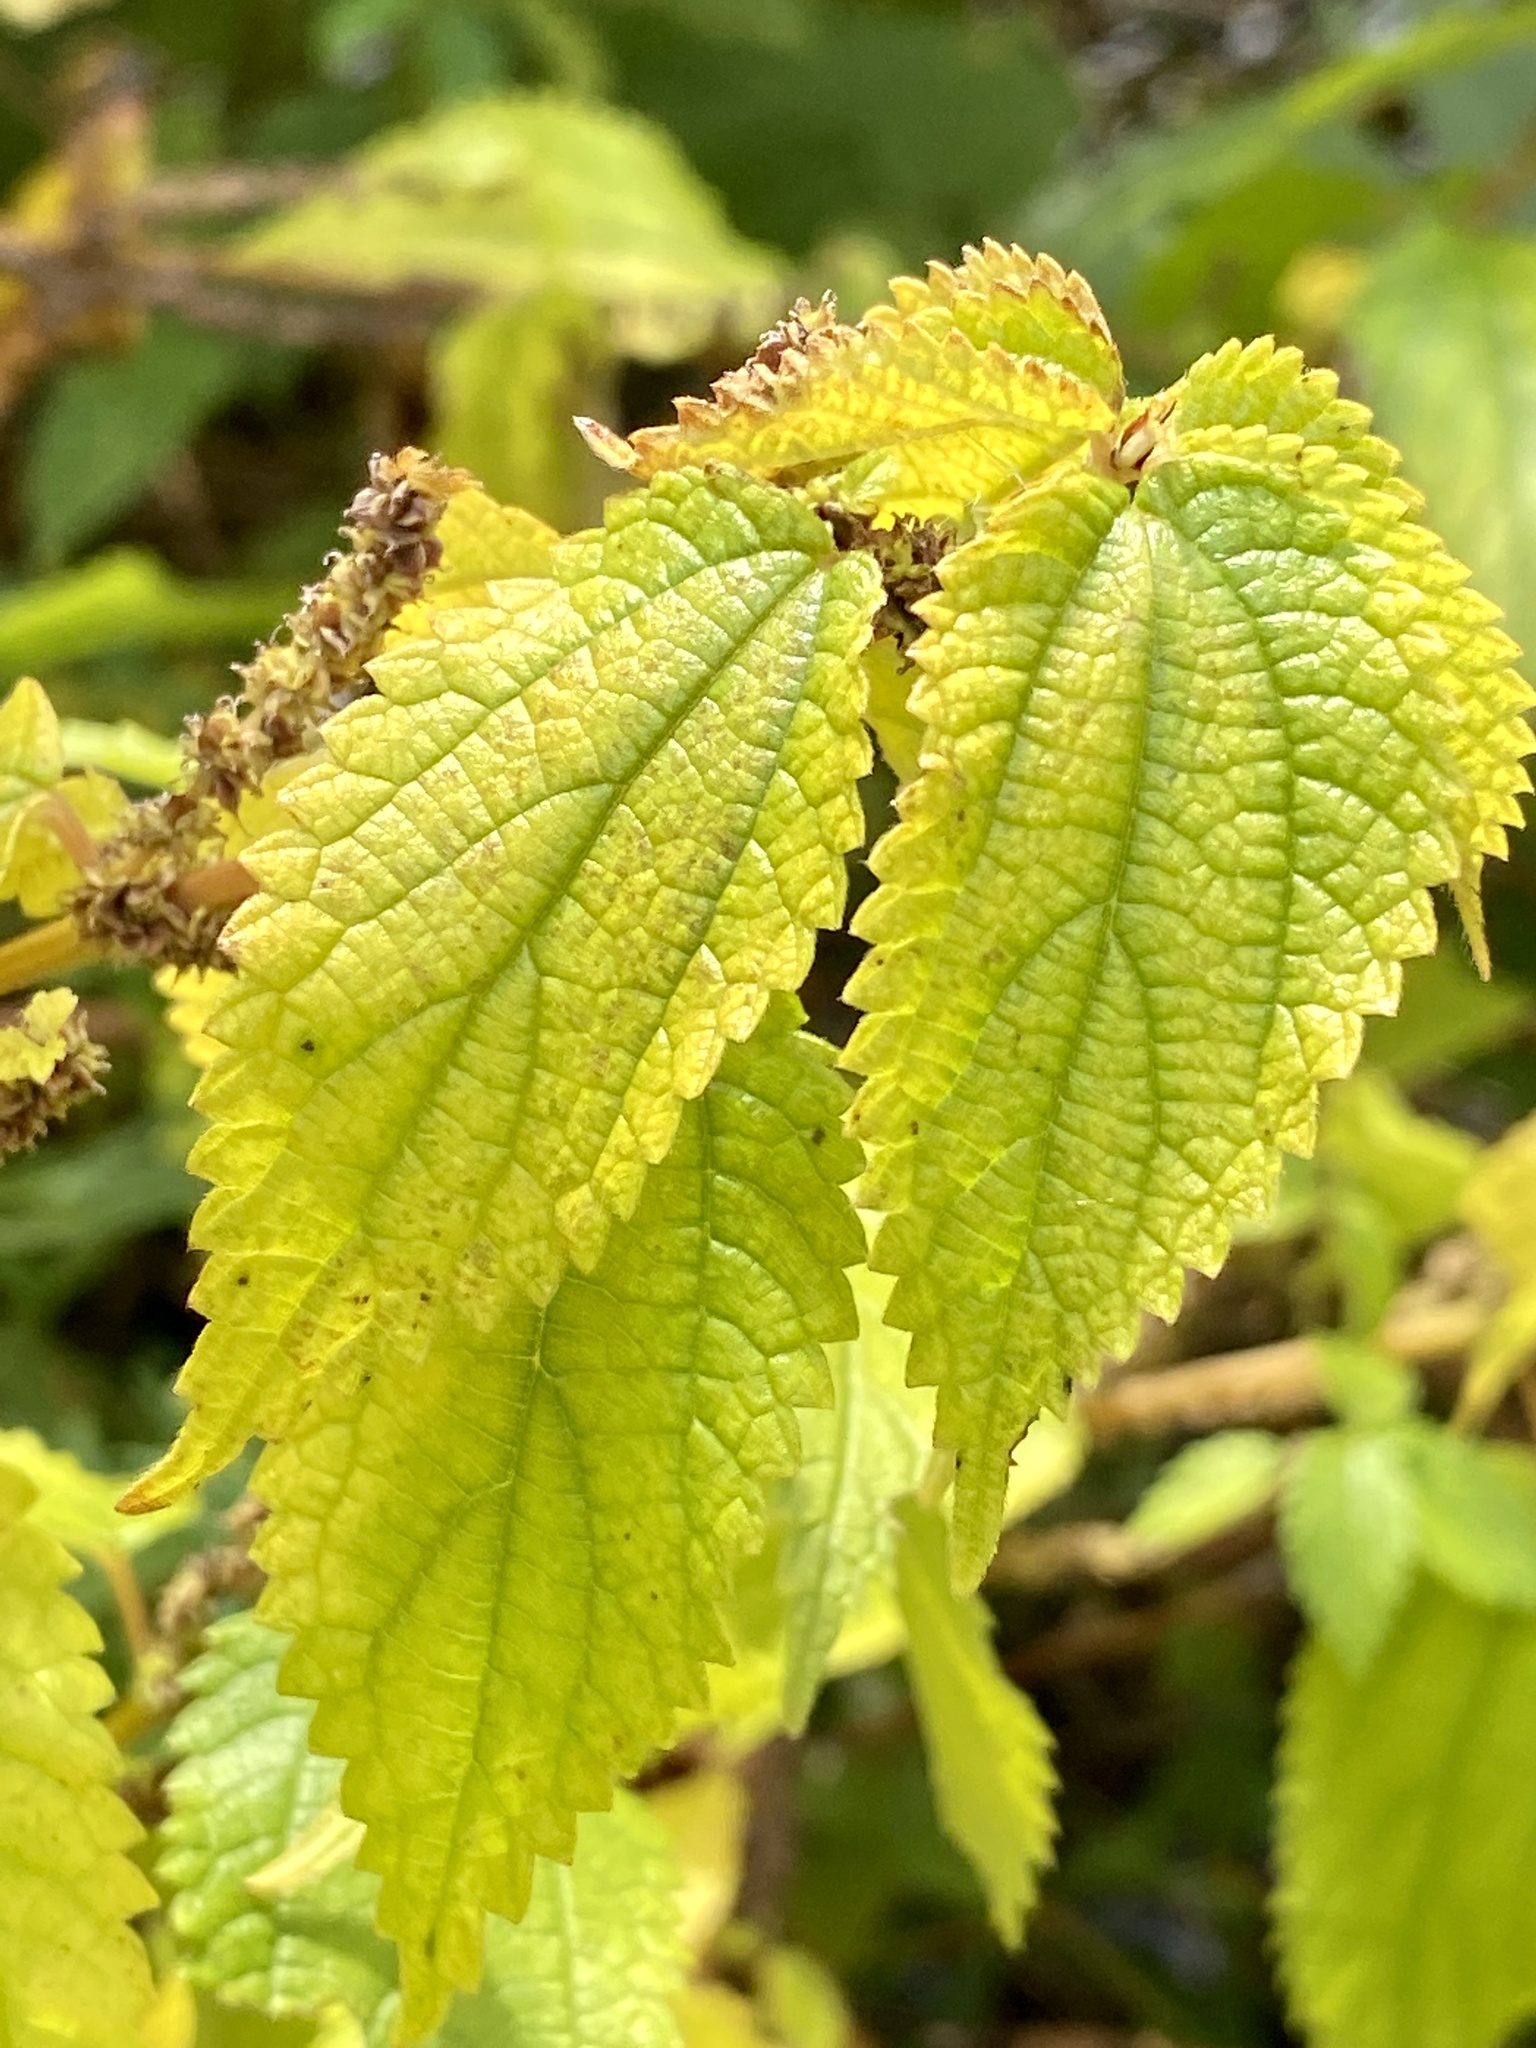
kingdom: Plantae
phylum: Tracheophyta
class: Magnoliopsida
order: Rosales
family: Urticaceae
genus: Boehmeria
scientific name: Boehmeria cylindrica
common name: Bog-hemp
